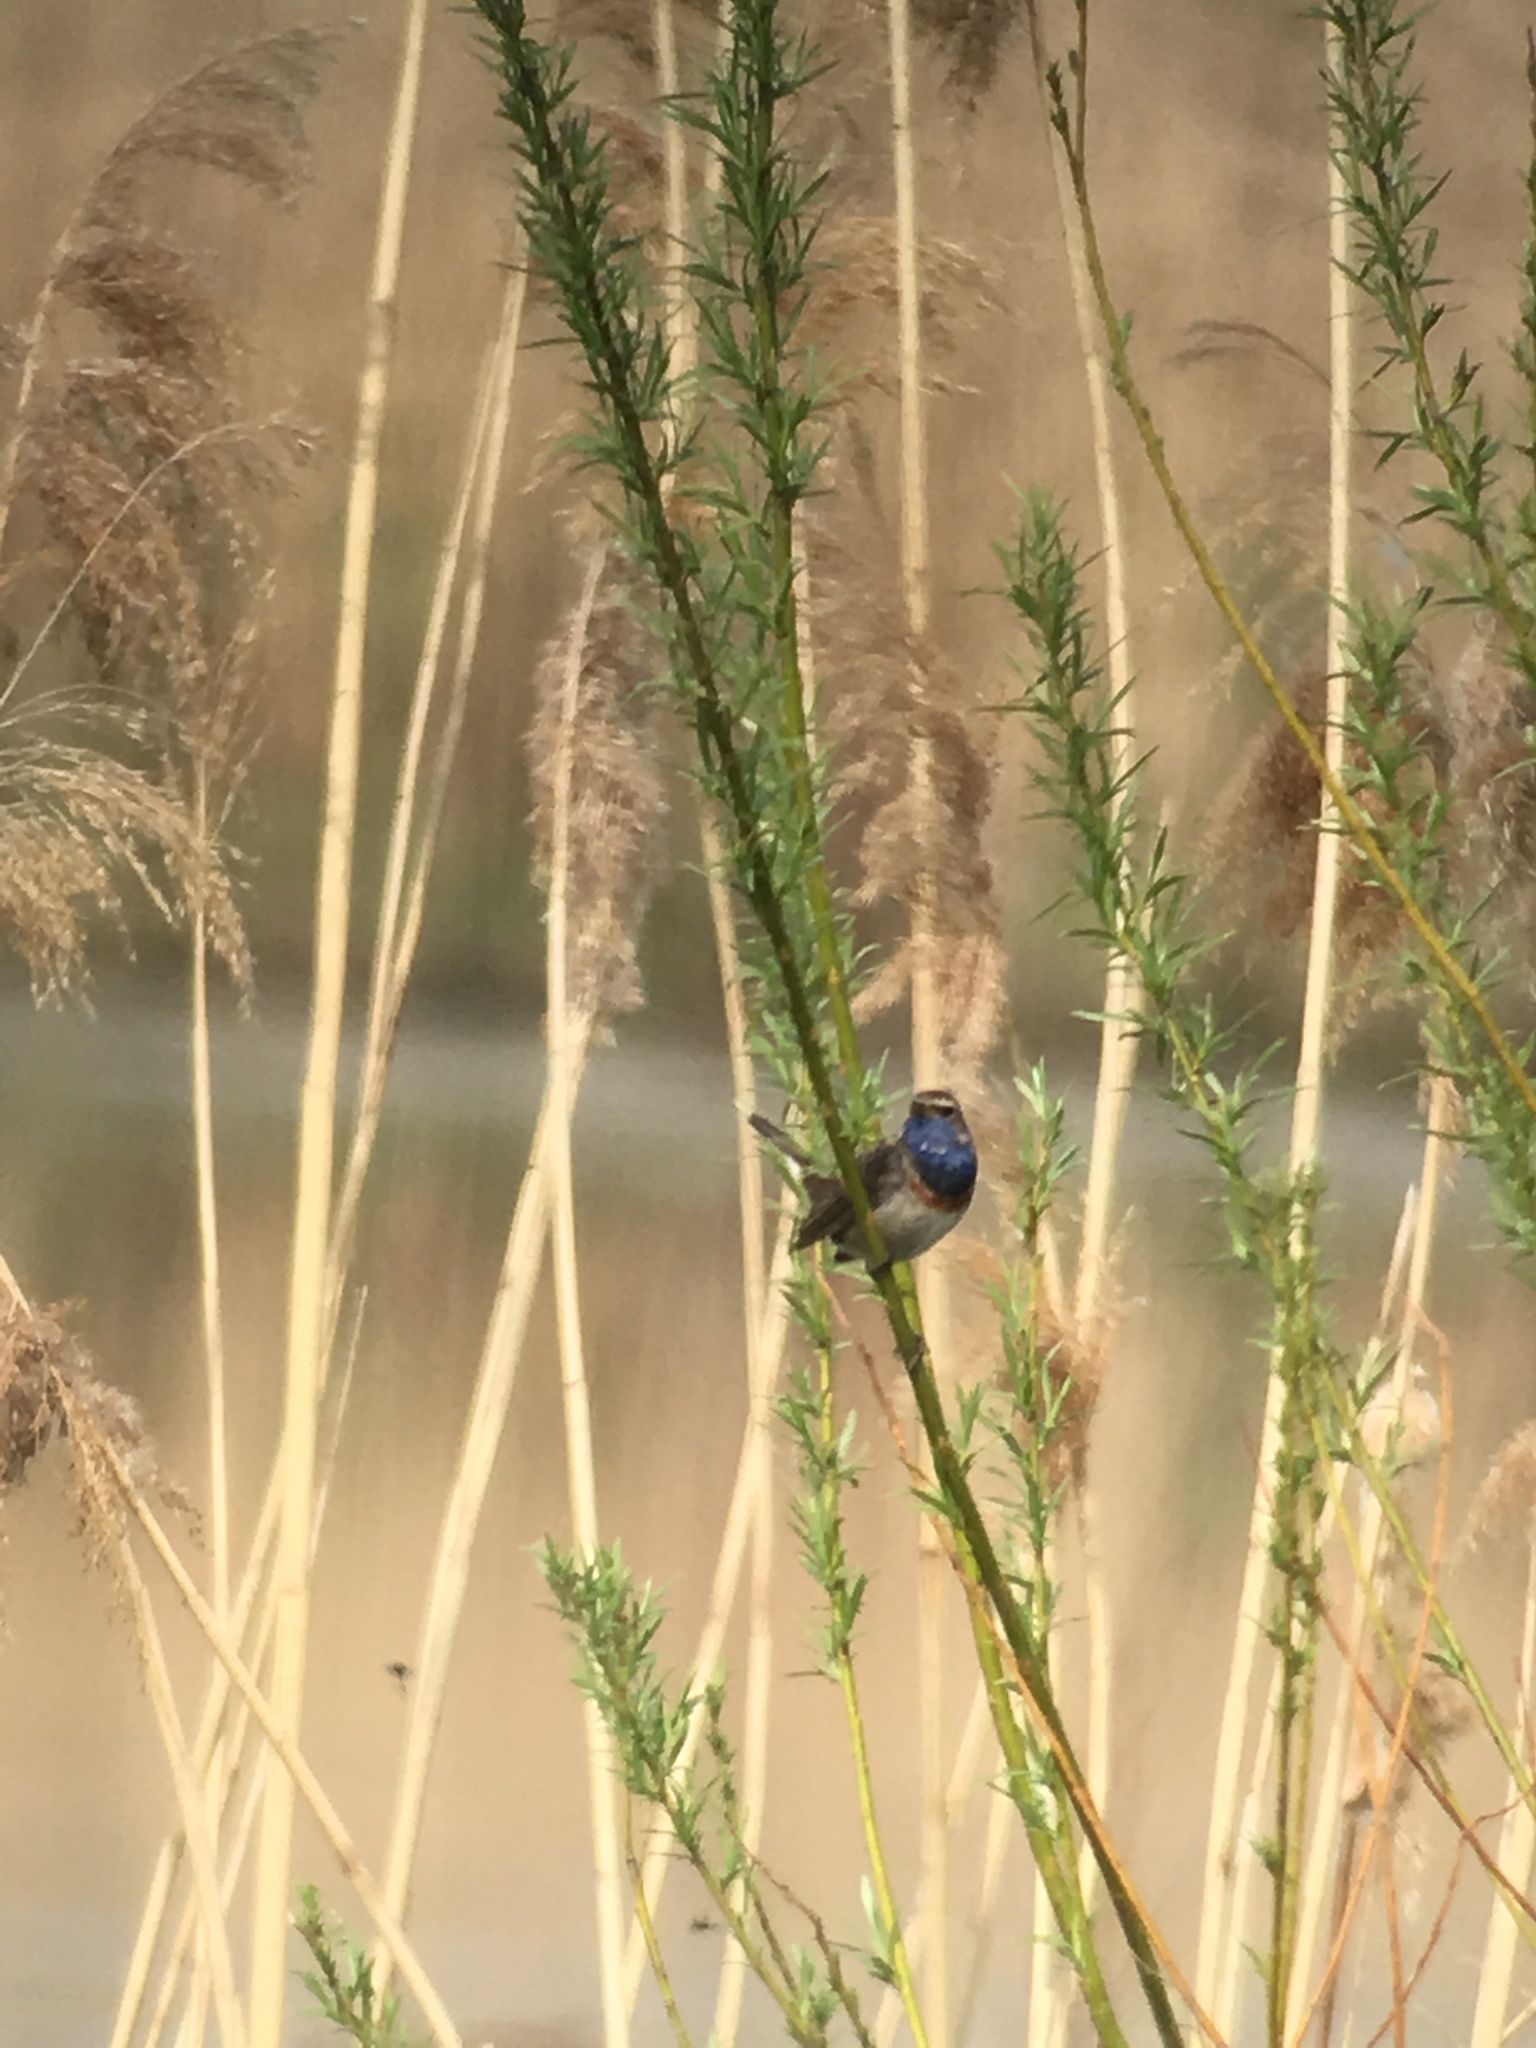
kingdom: Animalia
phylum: Chordata
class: Aves
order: Passeriformes
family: Muscicapidae
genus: Luscinia
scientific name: Luscinia svecica
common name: Bluethroat
